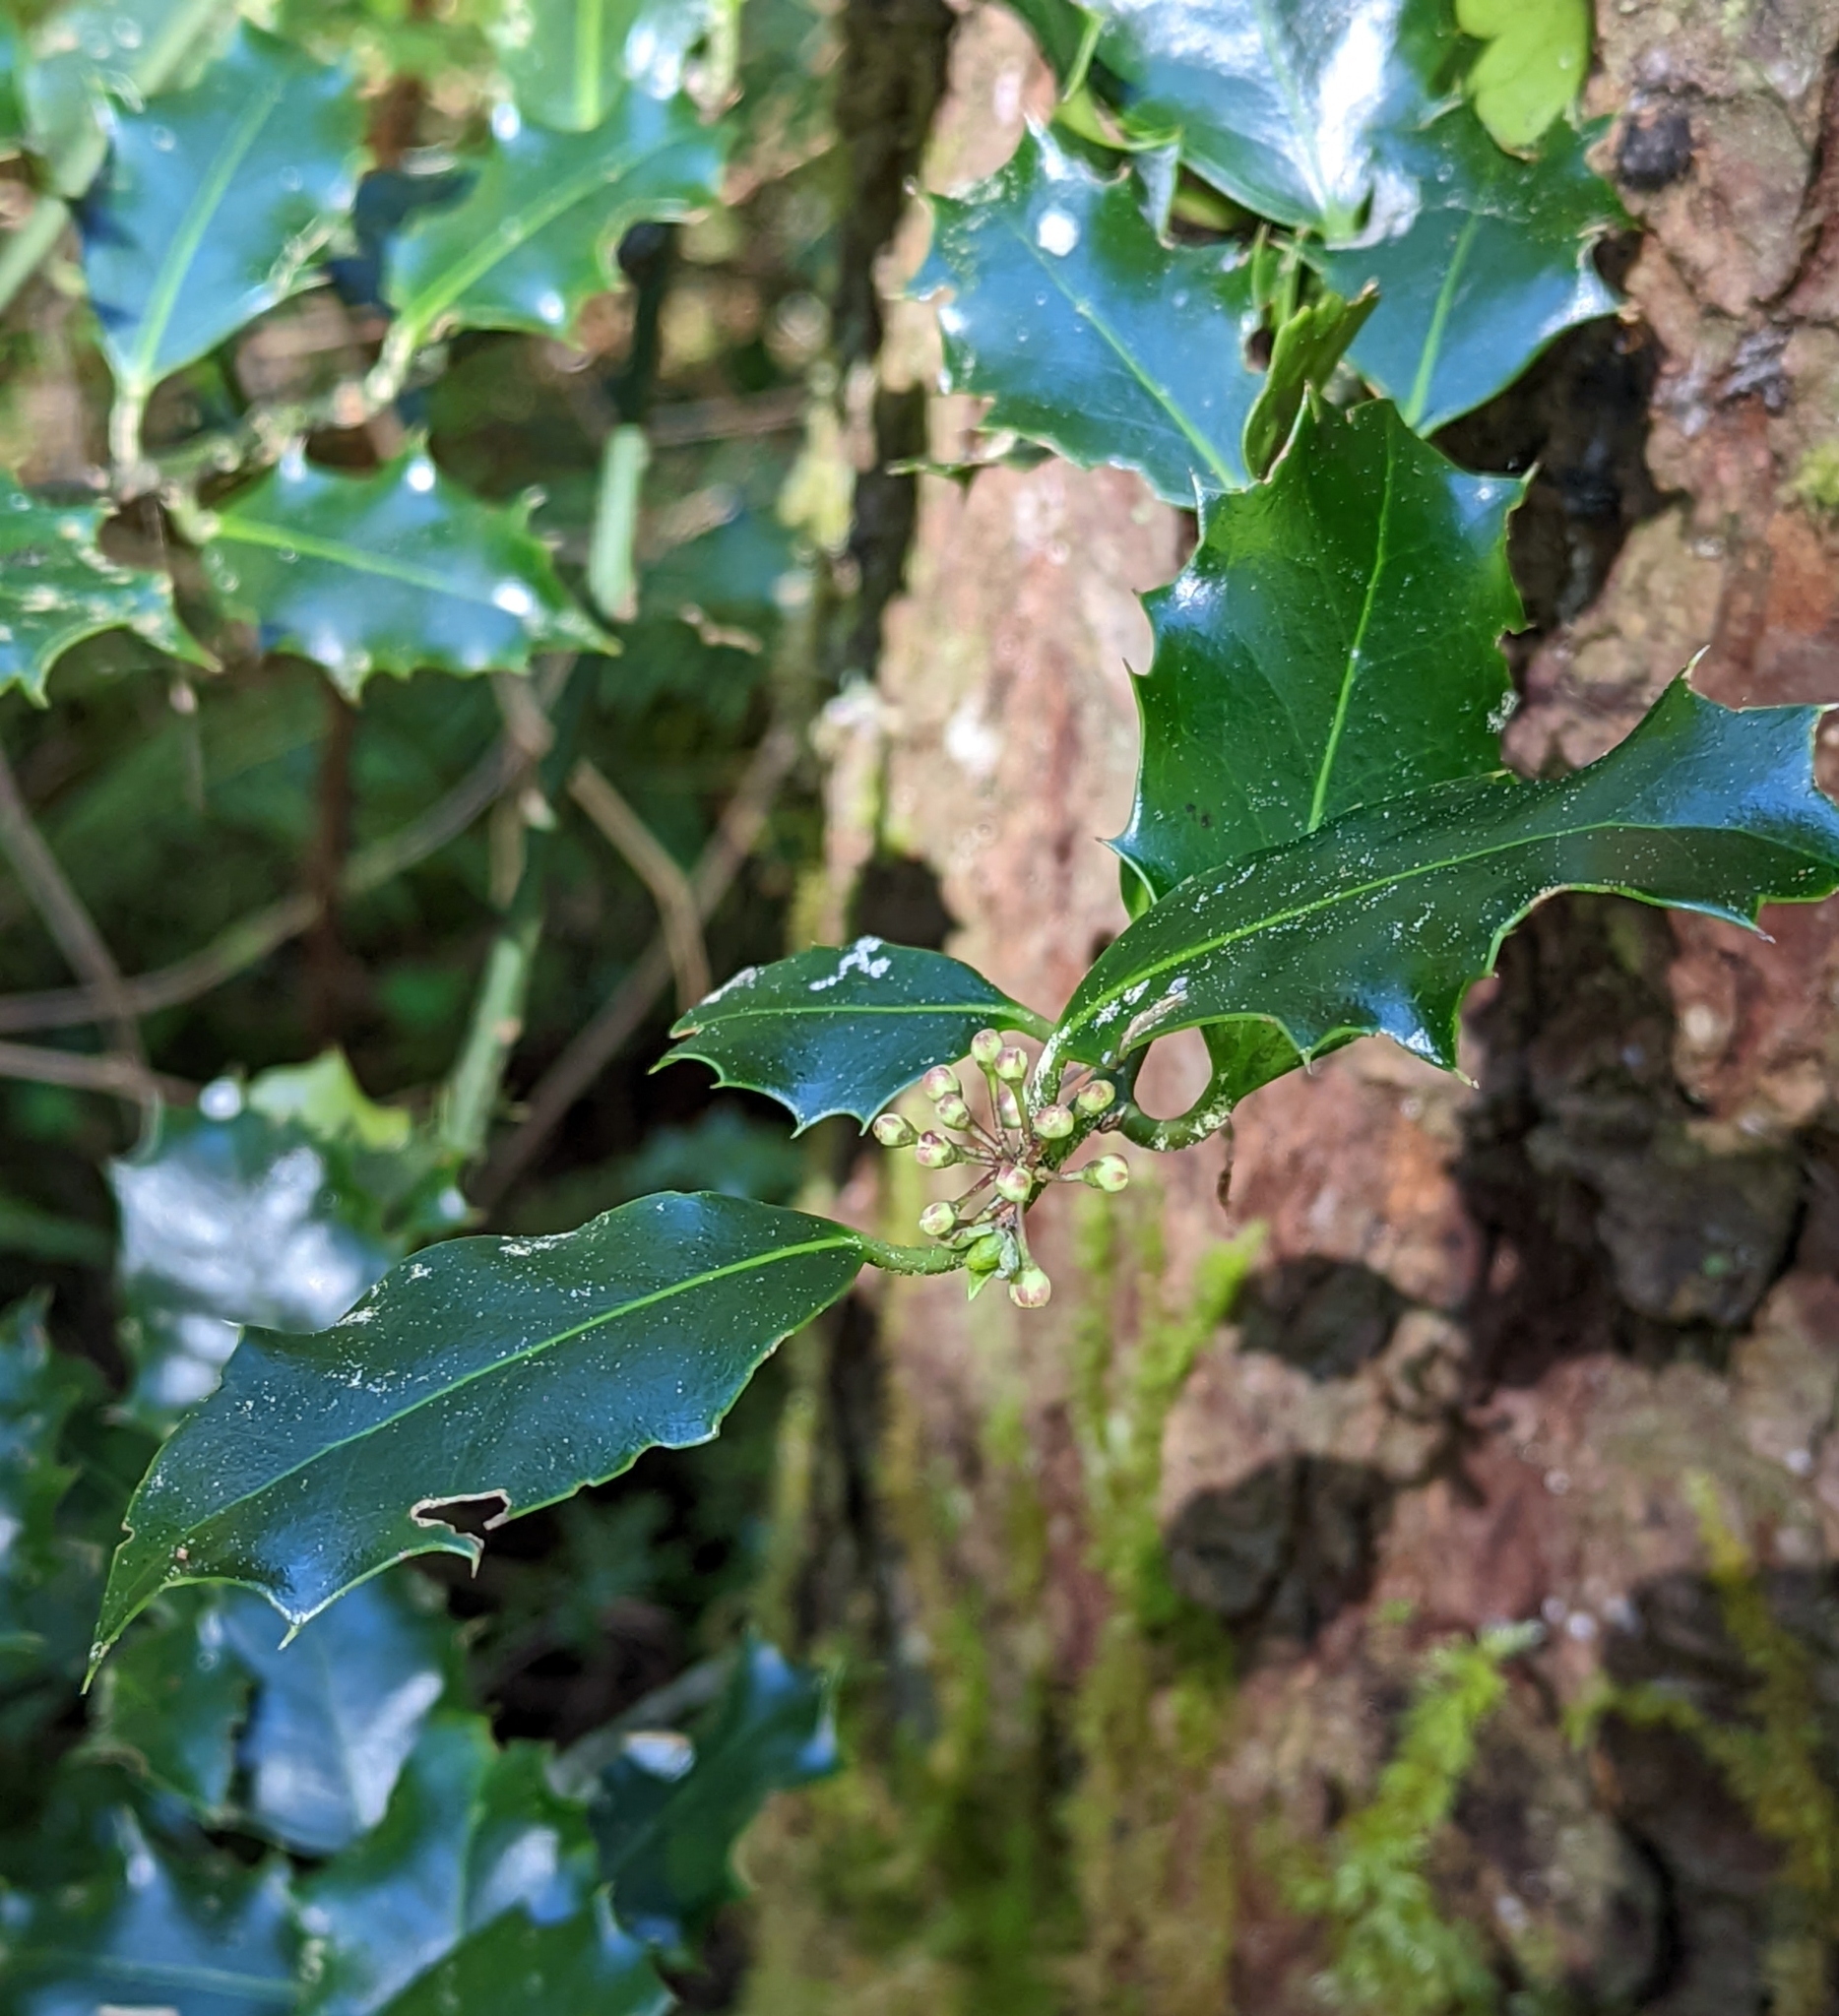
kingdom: Plantae
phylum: Tracheophyta
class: Magnoliopsida
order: Aquifoliales
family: Aquifoliaceae
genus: Ilex
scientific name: Ilex aquifolium
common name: English holly
